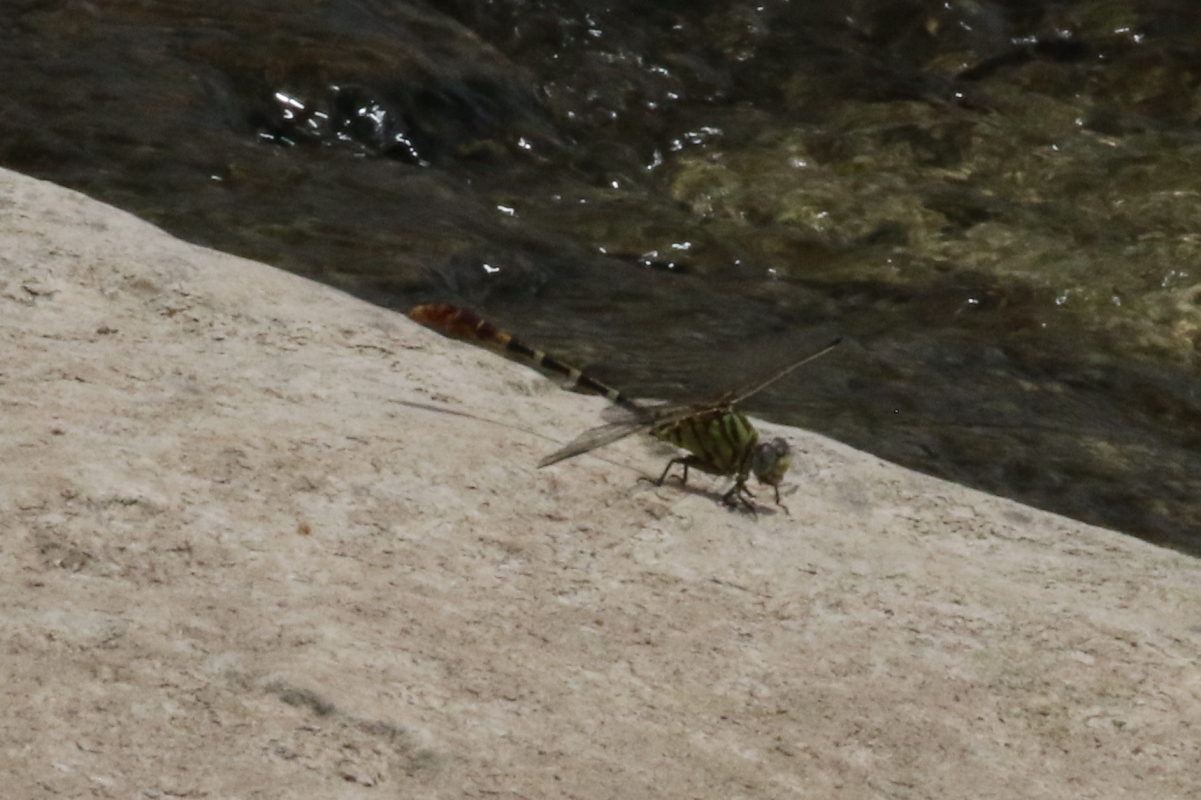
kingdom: Animalia
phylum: Arthropoda
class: Insecta
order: Odonata
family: Gomphidae
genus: Erpetogomphus
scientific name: Erpetogomphus designatus
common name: Eastern ringtail
